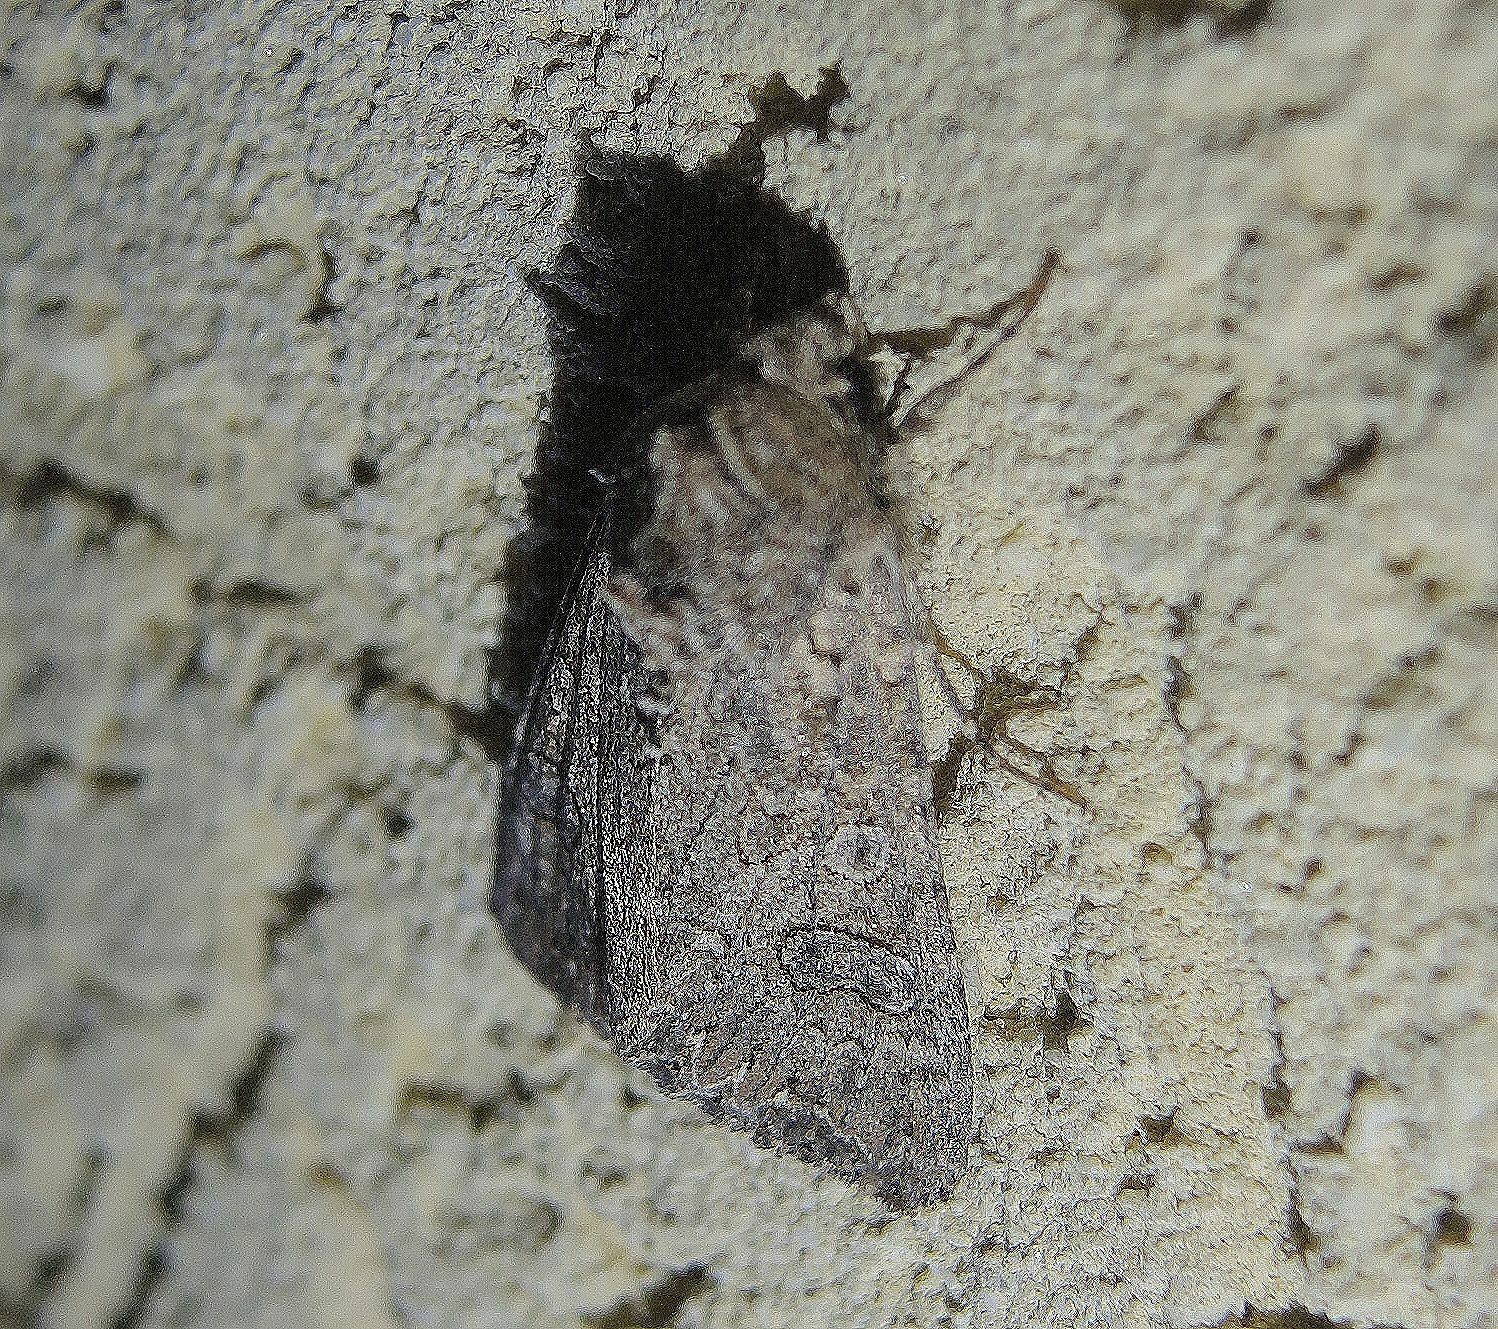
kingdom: Animalia
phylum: Arthropoda
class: Insecta
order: Lepidoptera
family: Noctuidae
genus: Anarta
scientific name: Anarta trifolii
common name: Clover cutworm moth
